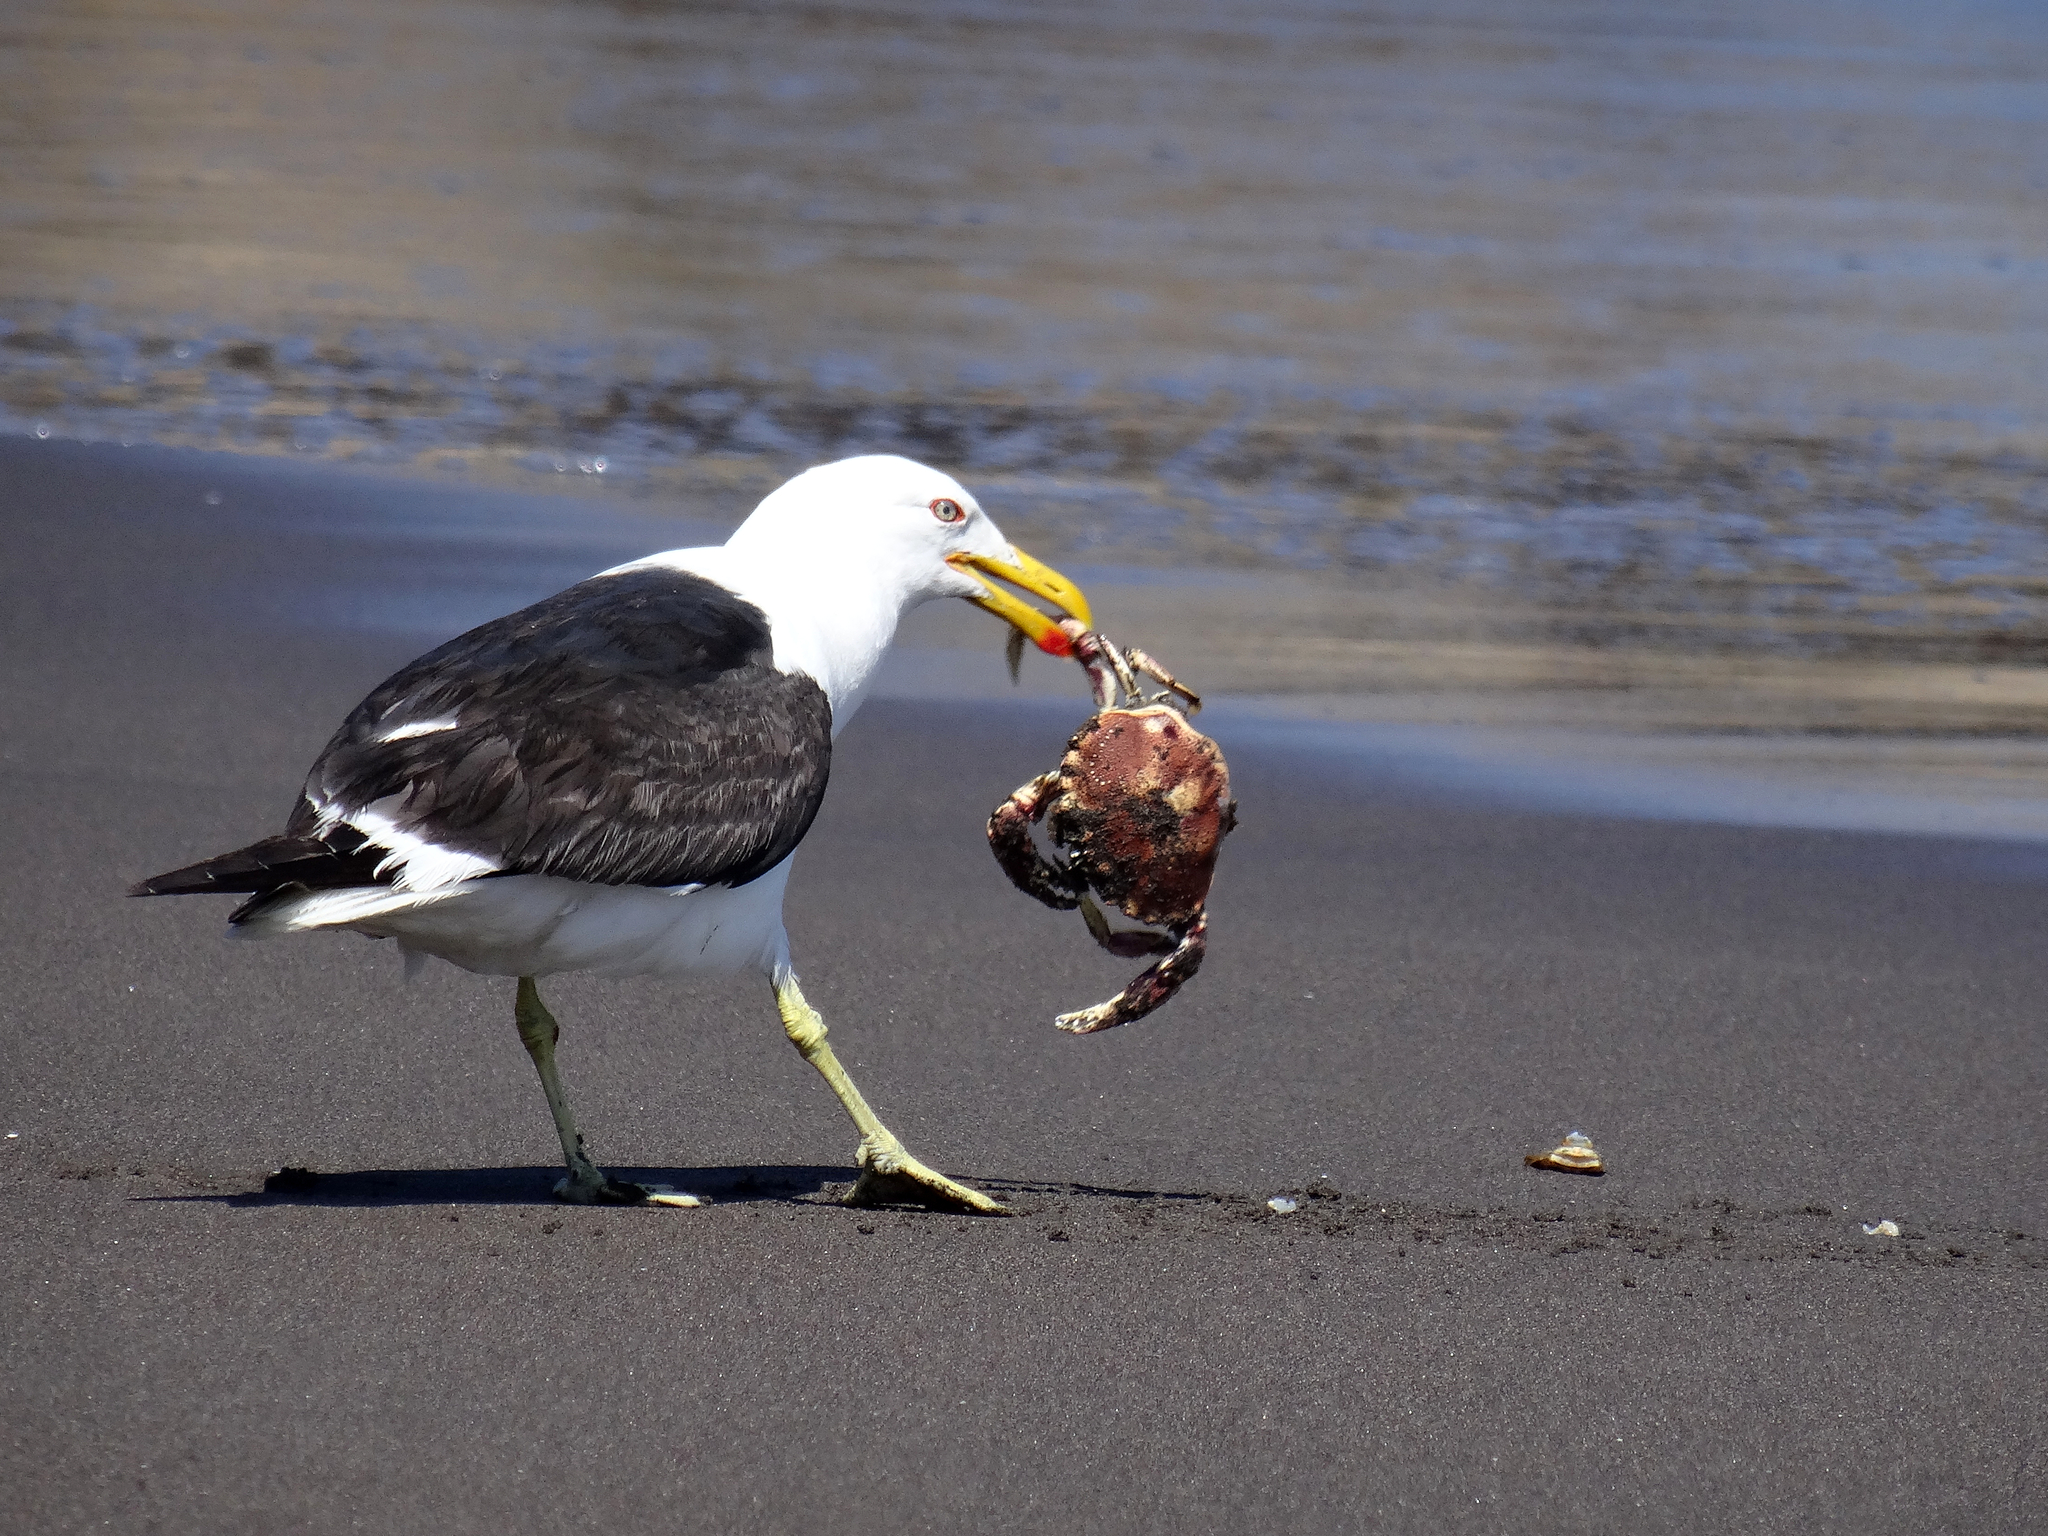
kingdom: Animalia
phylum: Chordata
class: Aves
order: Charadriiformes
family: Laridae
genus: Larus
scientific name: Larus dominicanus
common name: Kelp gull
